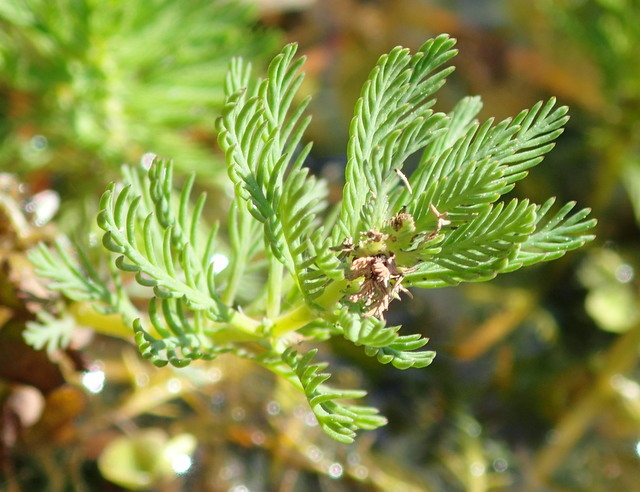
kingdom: Plantae
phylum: Tracheophyta
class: Magnoliopsida
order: Saxifragales
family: Haloragaceae
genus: Myriophyllum
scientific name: Myriophyllum aquaticum
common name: Parrot's feather
